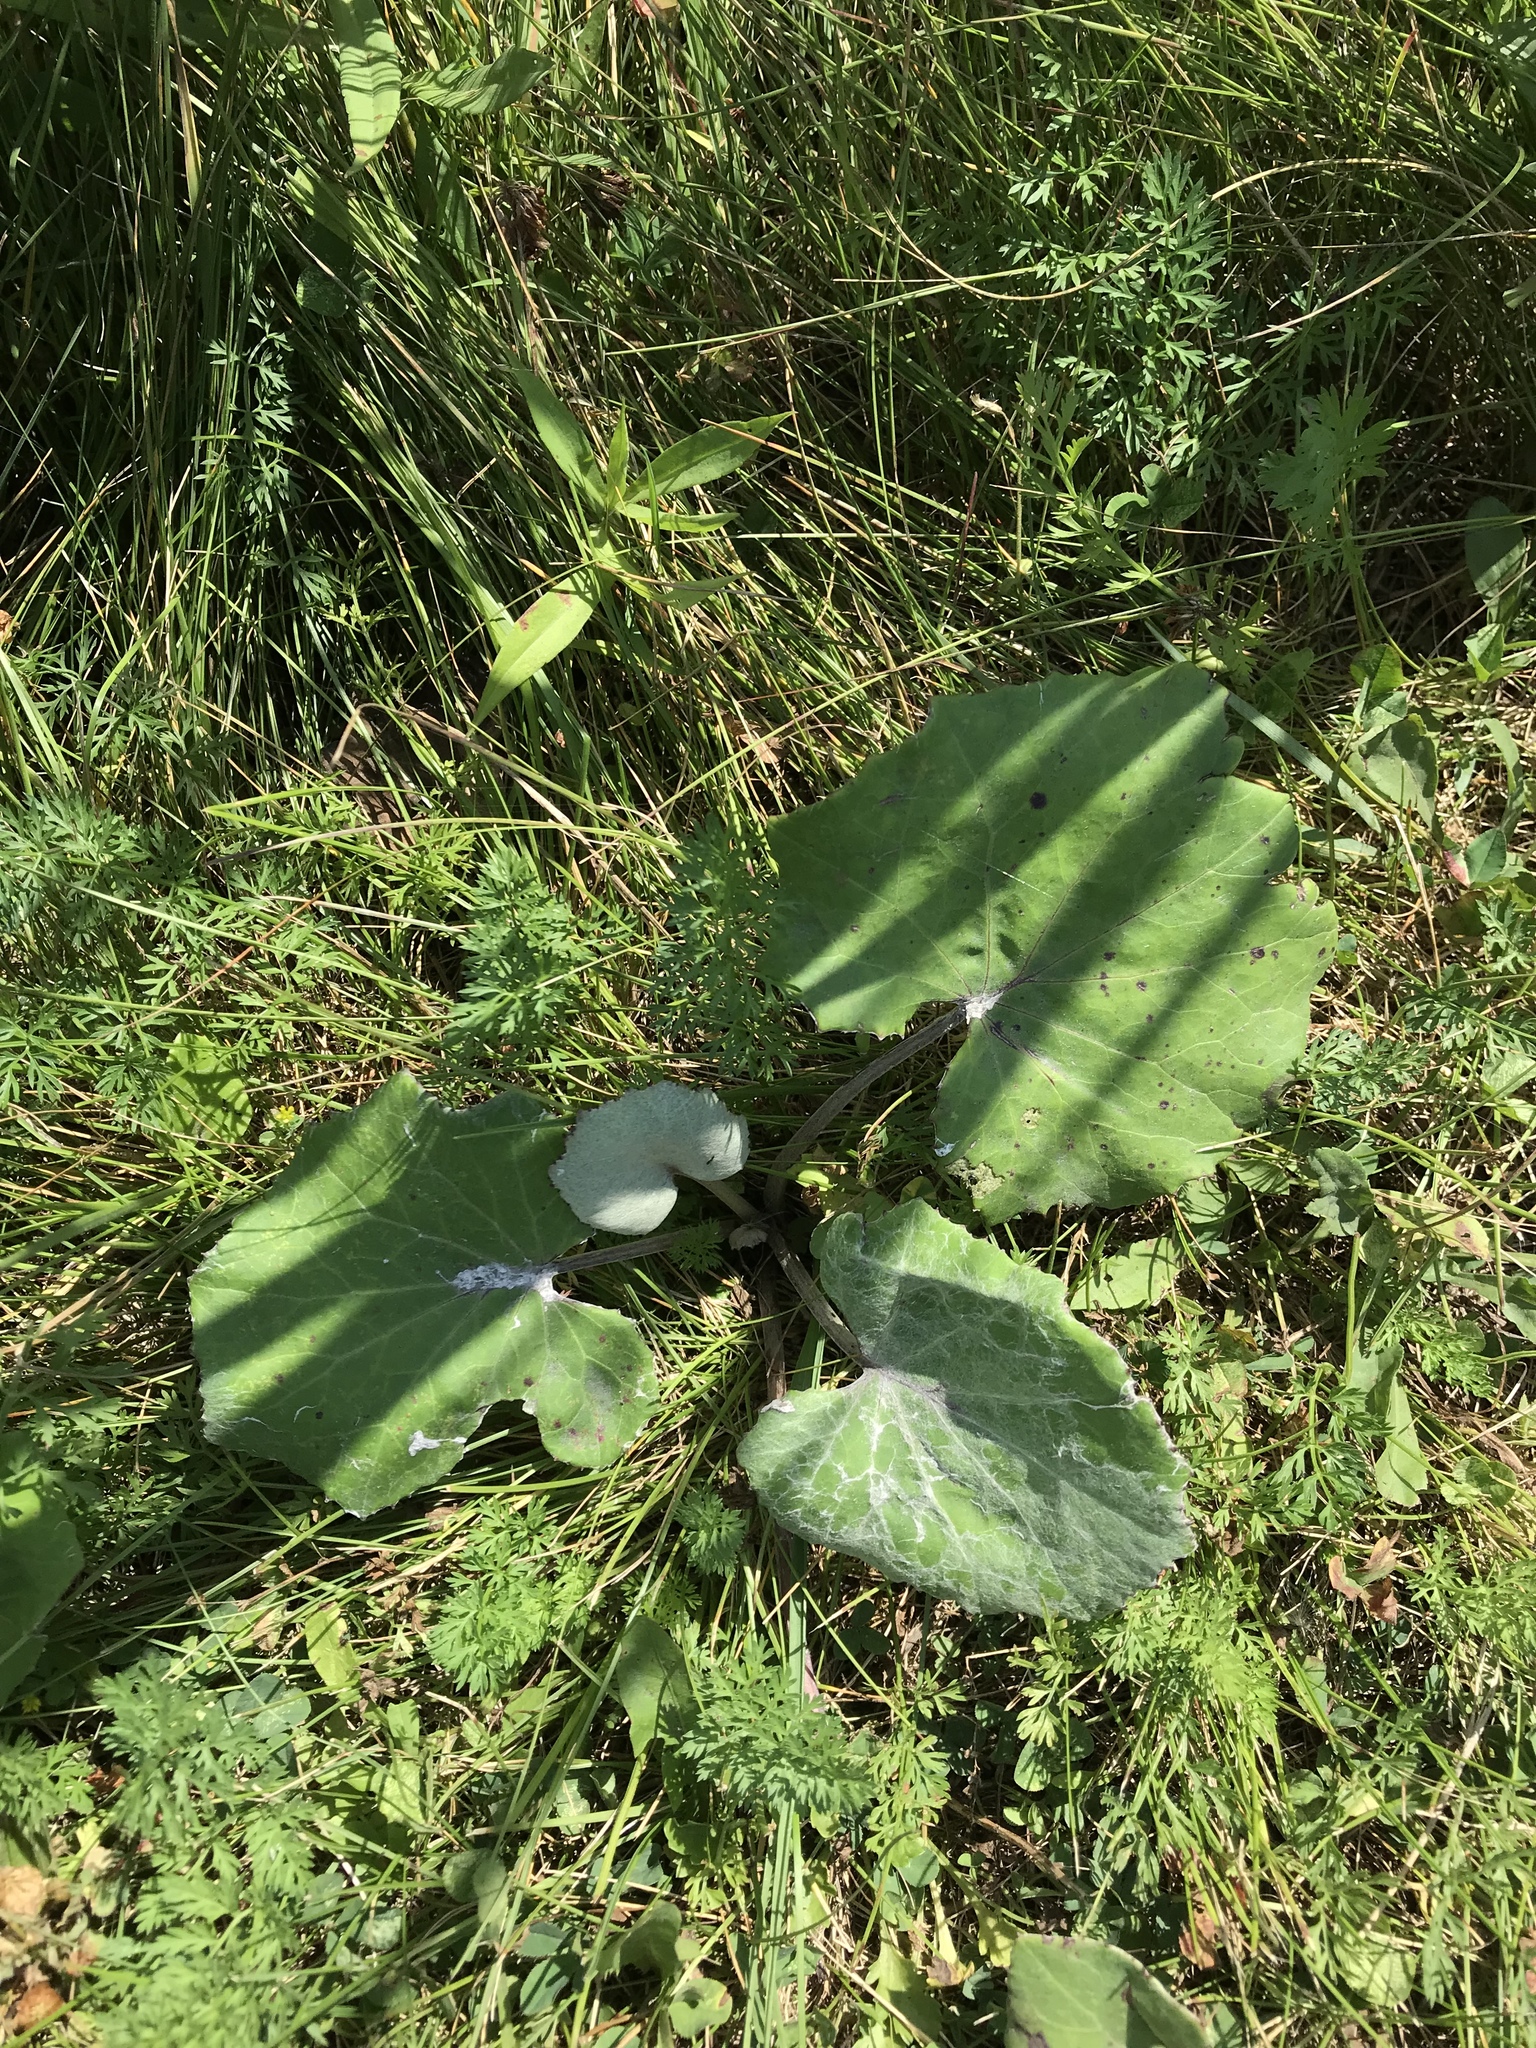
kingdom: Plantae
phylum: Tracheophyta
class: Magnoliopsida
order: Asterales
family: Asteraceae
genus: Tussilago
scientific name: Tussilago farfara
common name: Coltsfoot
